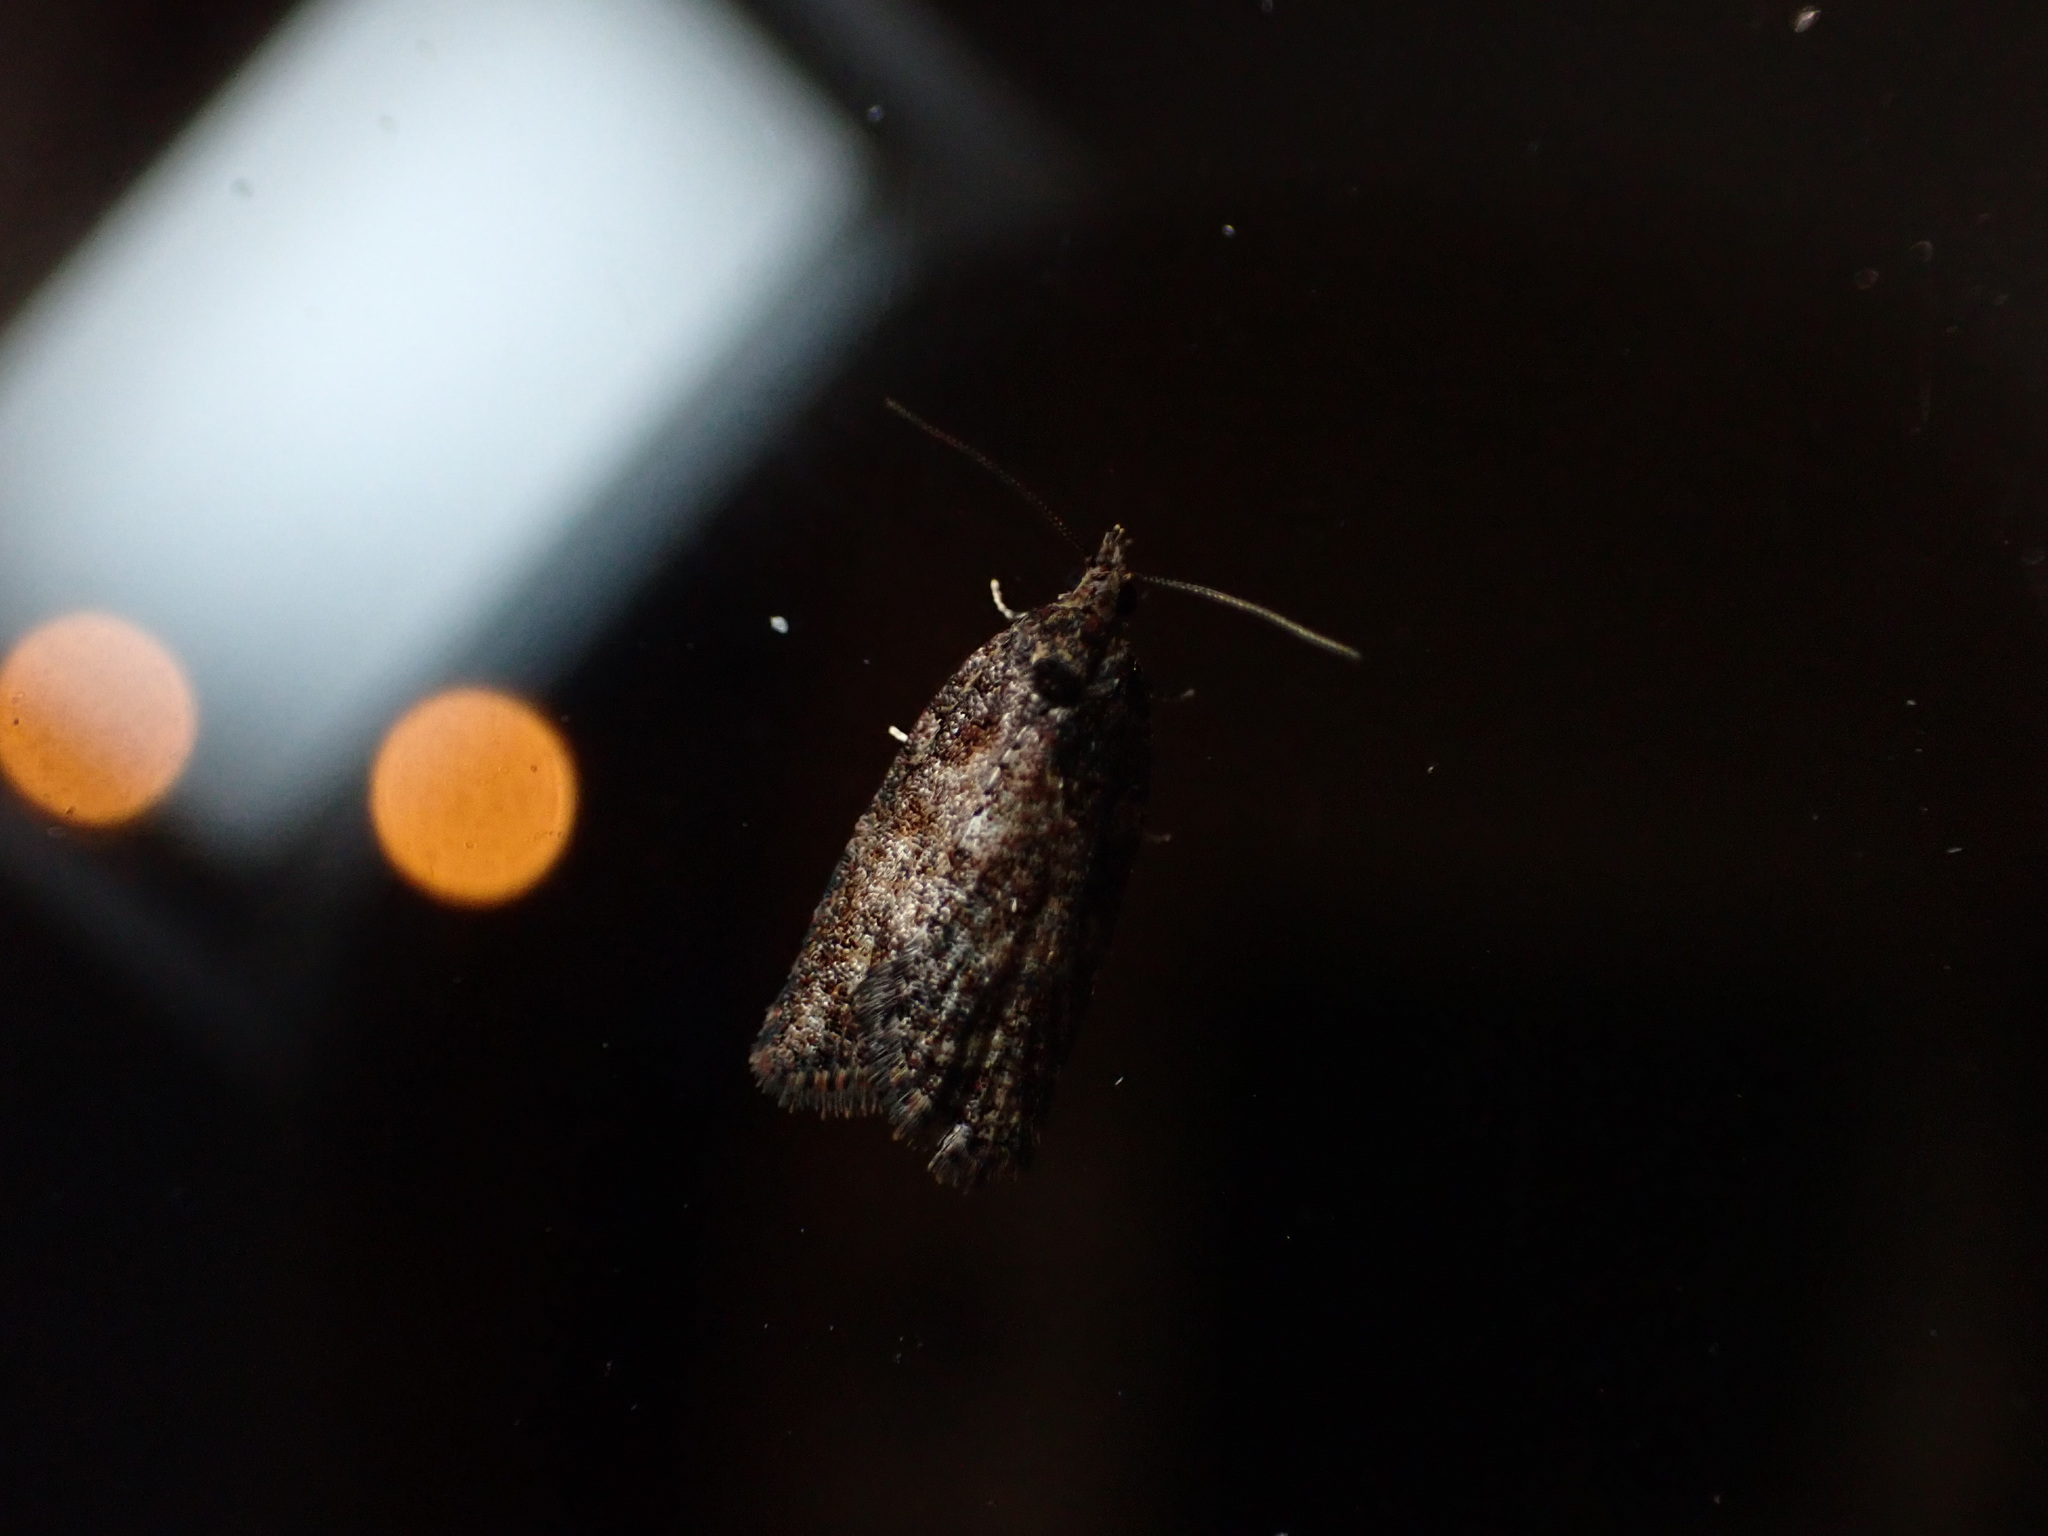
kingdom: Animalia
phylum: Arthropoda
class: Insecta
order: Lepidoptera
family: Tortricidae
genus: Capua
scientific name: Capua intractana
